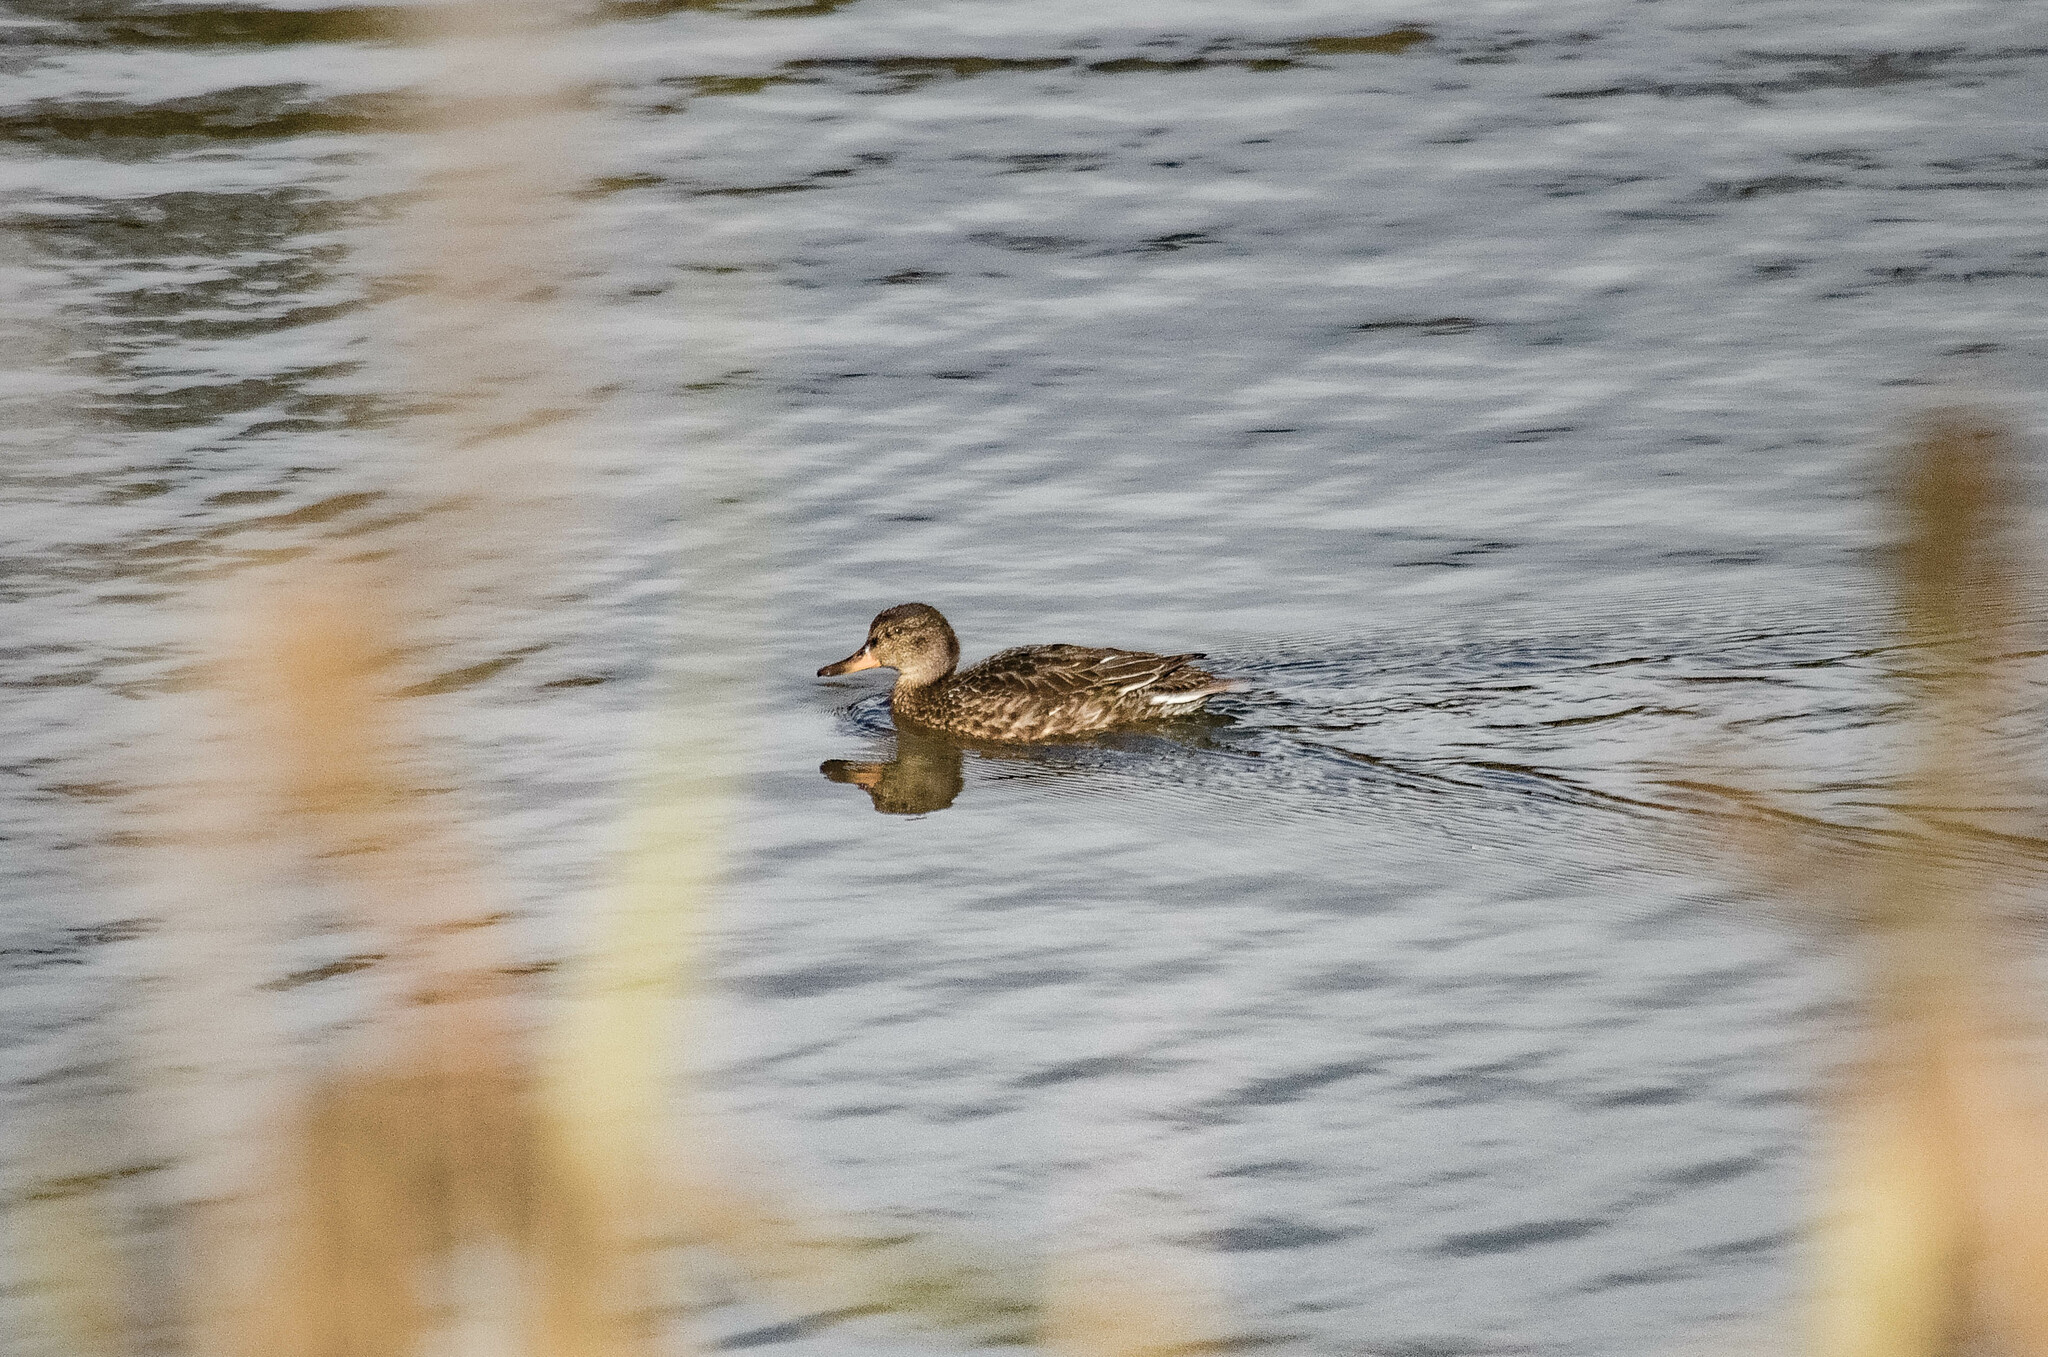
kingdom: Animalia
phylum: Chordata
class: Aves
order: Anseriformes
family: Anatidae
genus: Anas
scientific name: Anas crecca
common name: Eurasian teal
